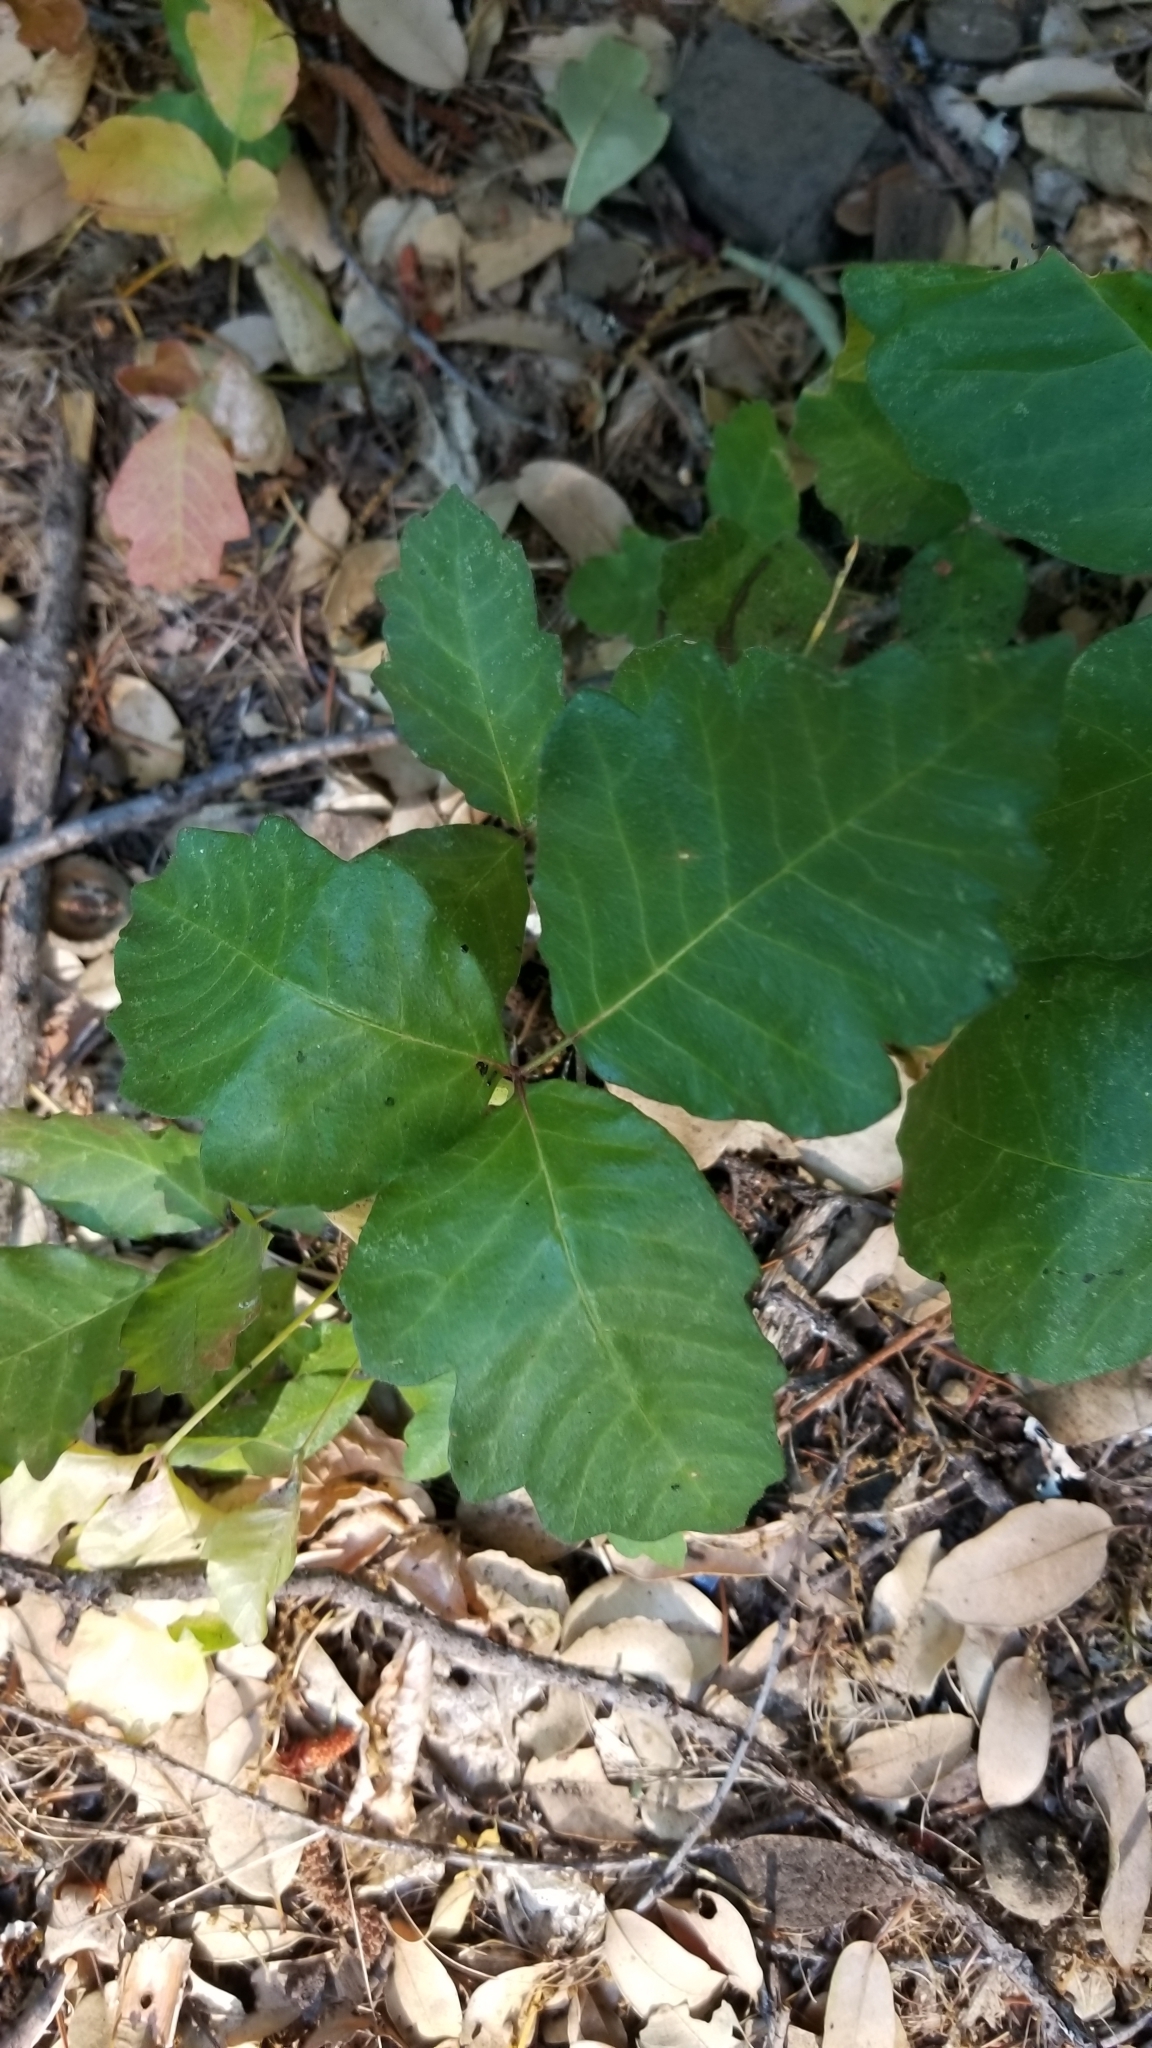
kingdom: Plantae
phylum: Tracheophyta
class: Magnoliopsida
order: Sapindales
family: Anacardiaceae
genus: Toxicodendron
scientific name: Toxicodendron diversilobum
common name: Pacific poison-oak
